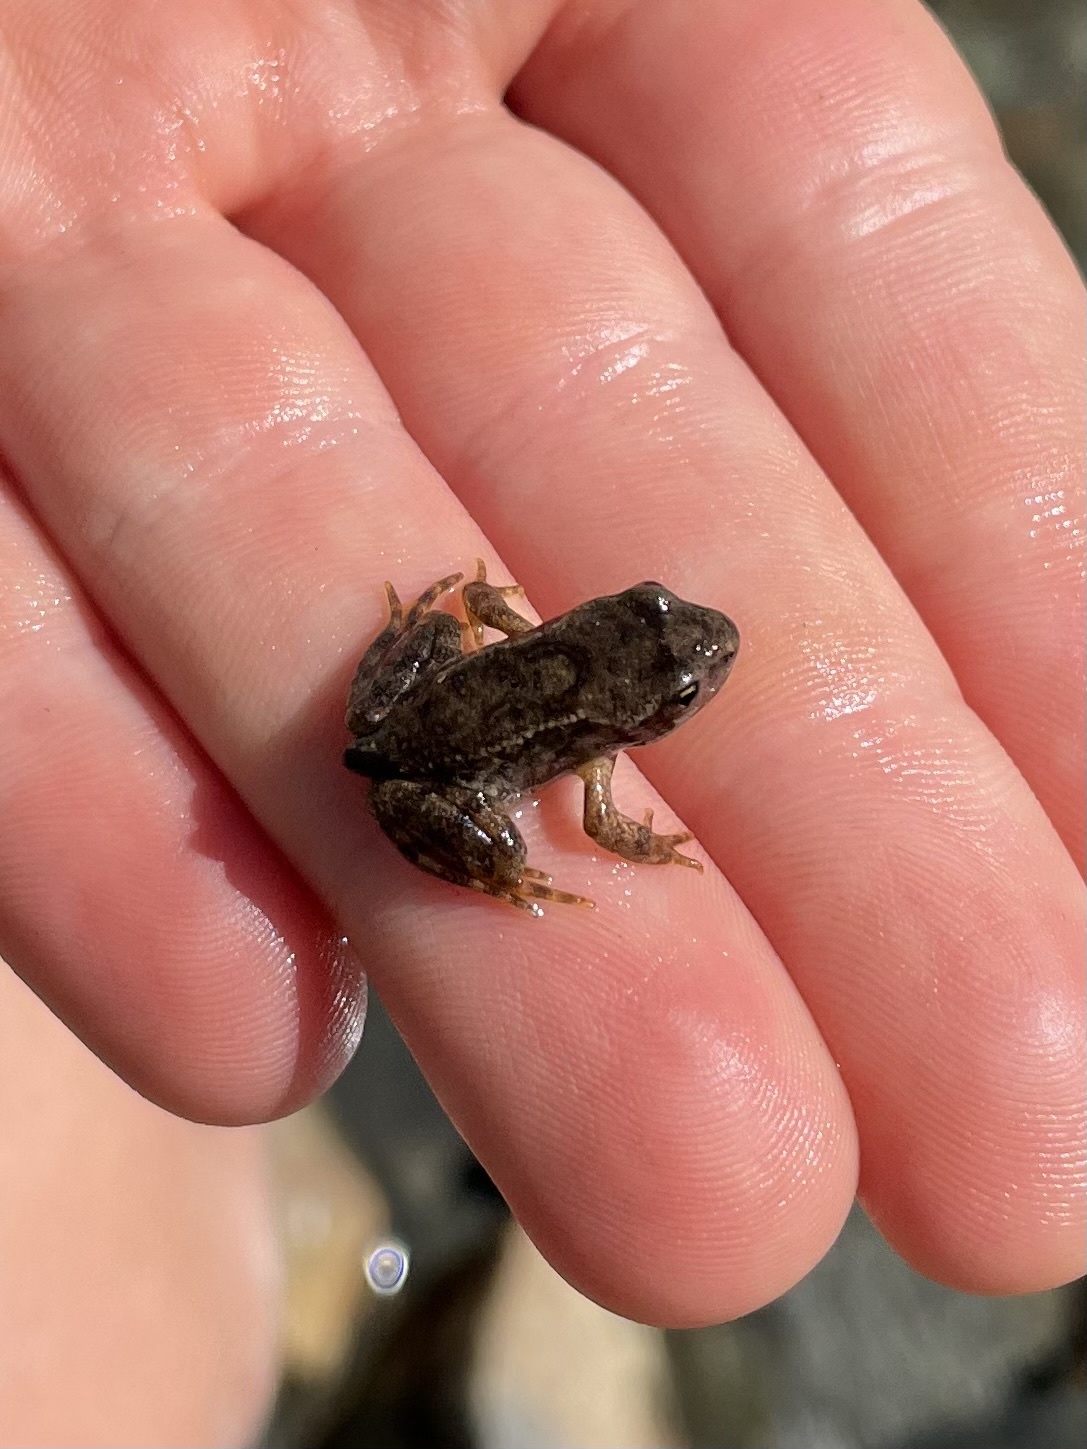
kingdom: Animalia
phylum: Chordata
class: Amphibia
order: Anura
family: Ranidae
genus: Rana
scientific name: Rana temporaria
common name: Common frog
